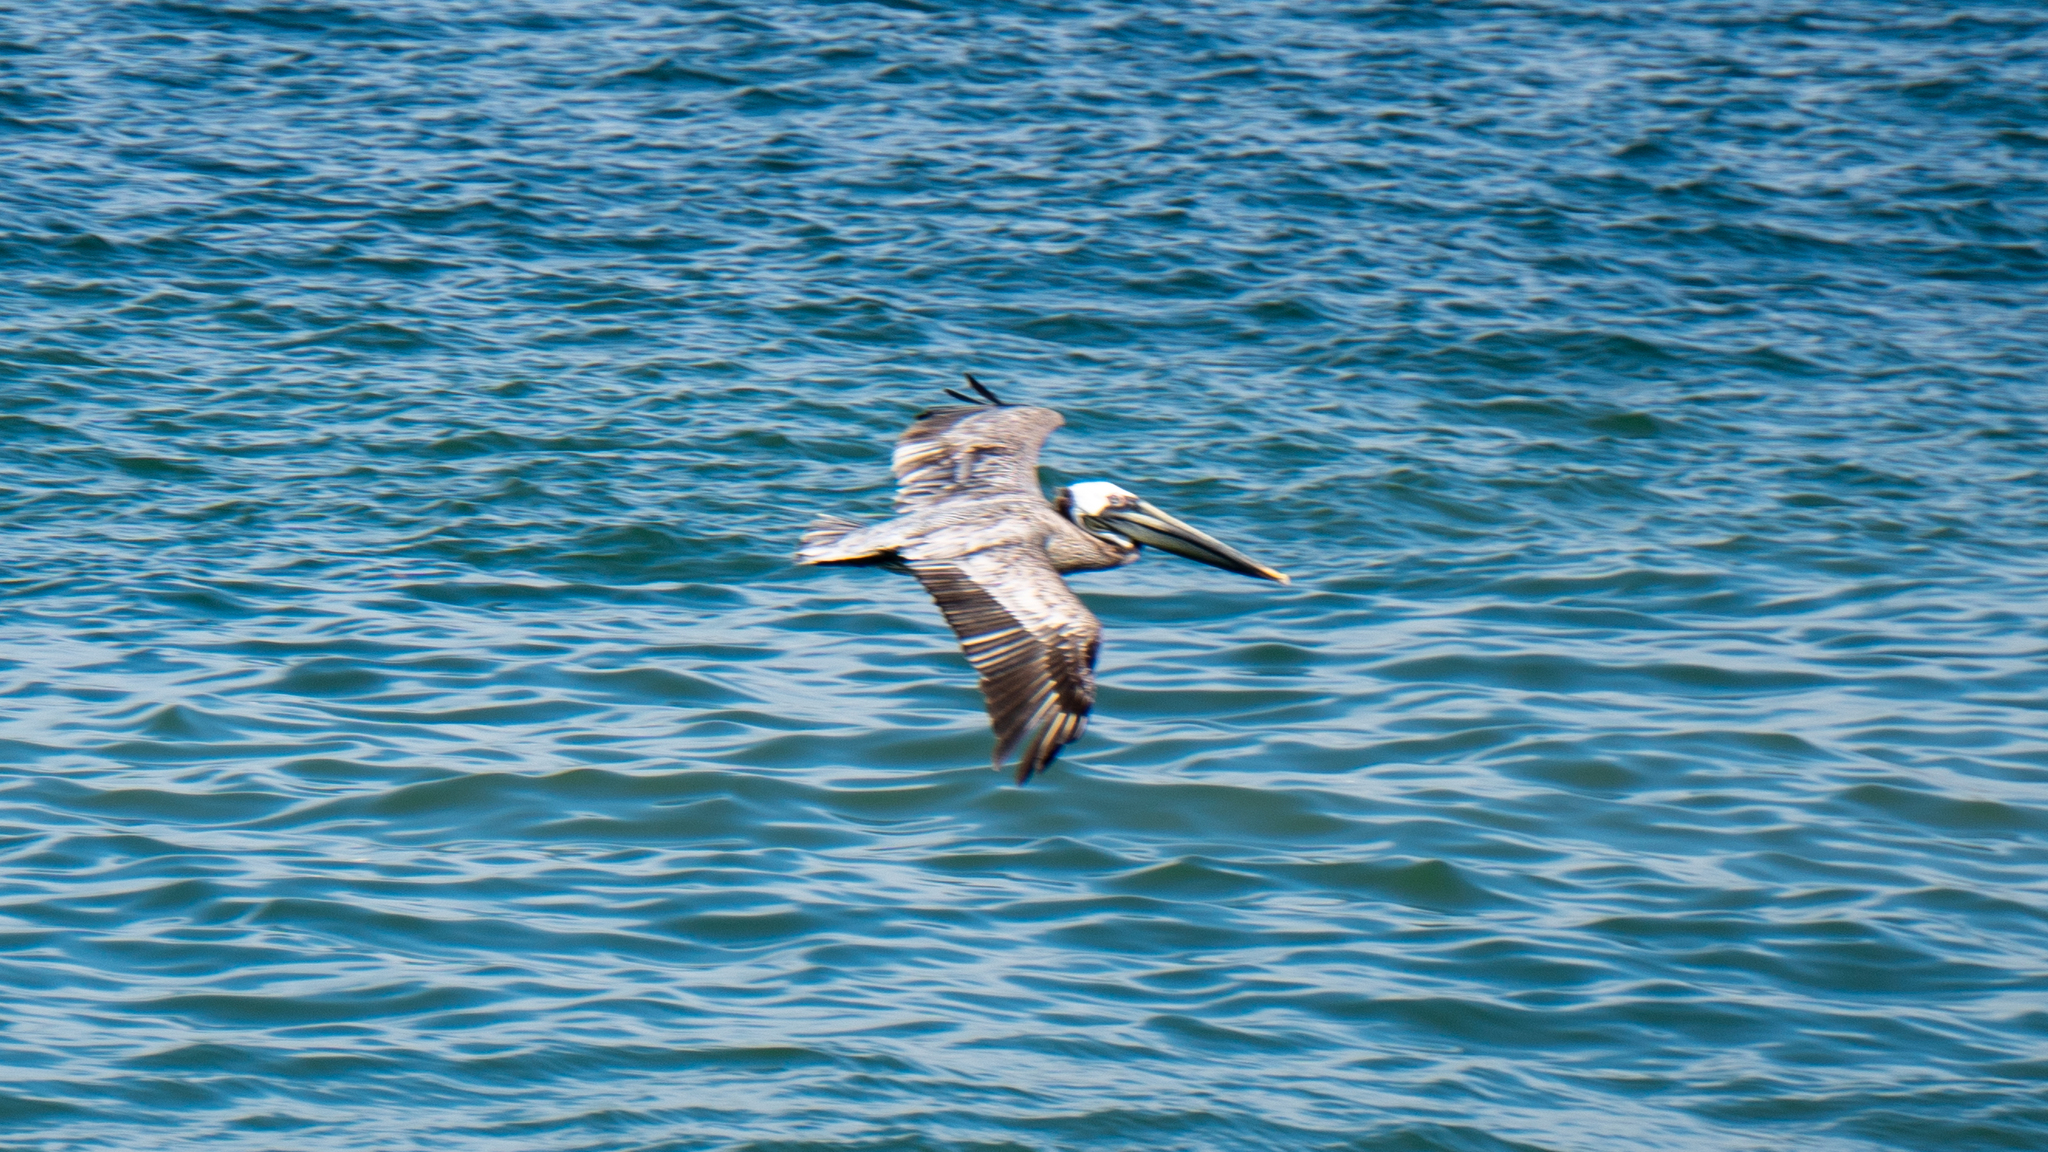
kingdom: Animalia
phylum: Chordata
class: Aves
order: Pelecaniformes
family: Pelecanidae
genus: Pelecanus
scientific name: Pelecanus occidentalis
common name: Brown pelican
